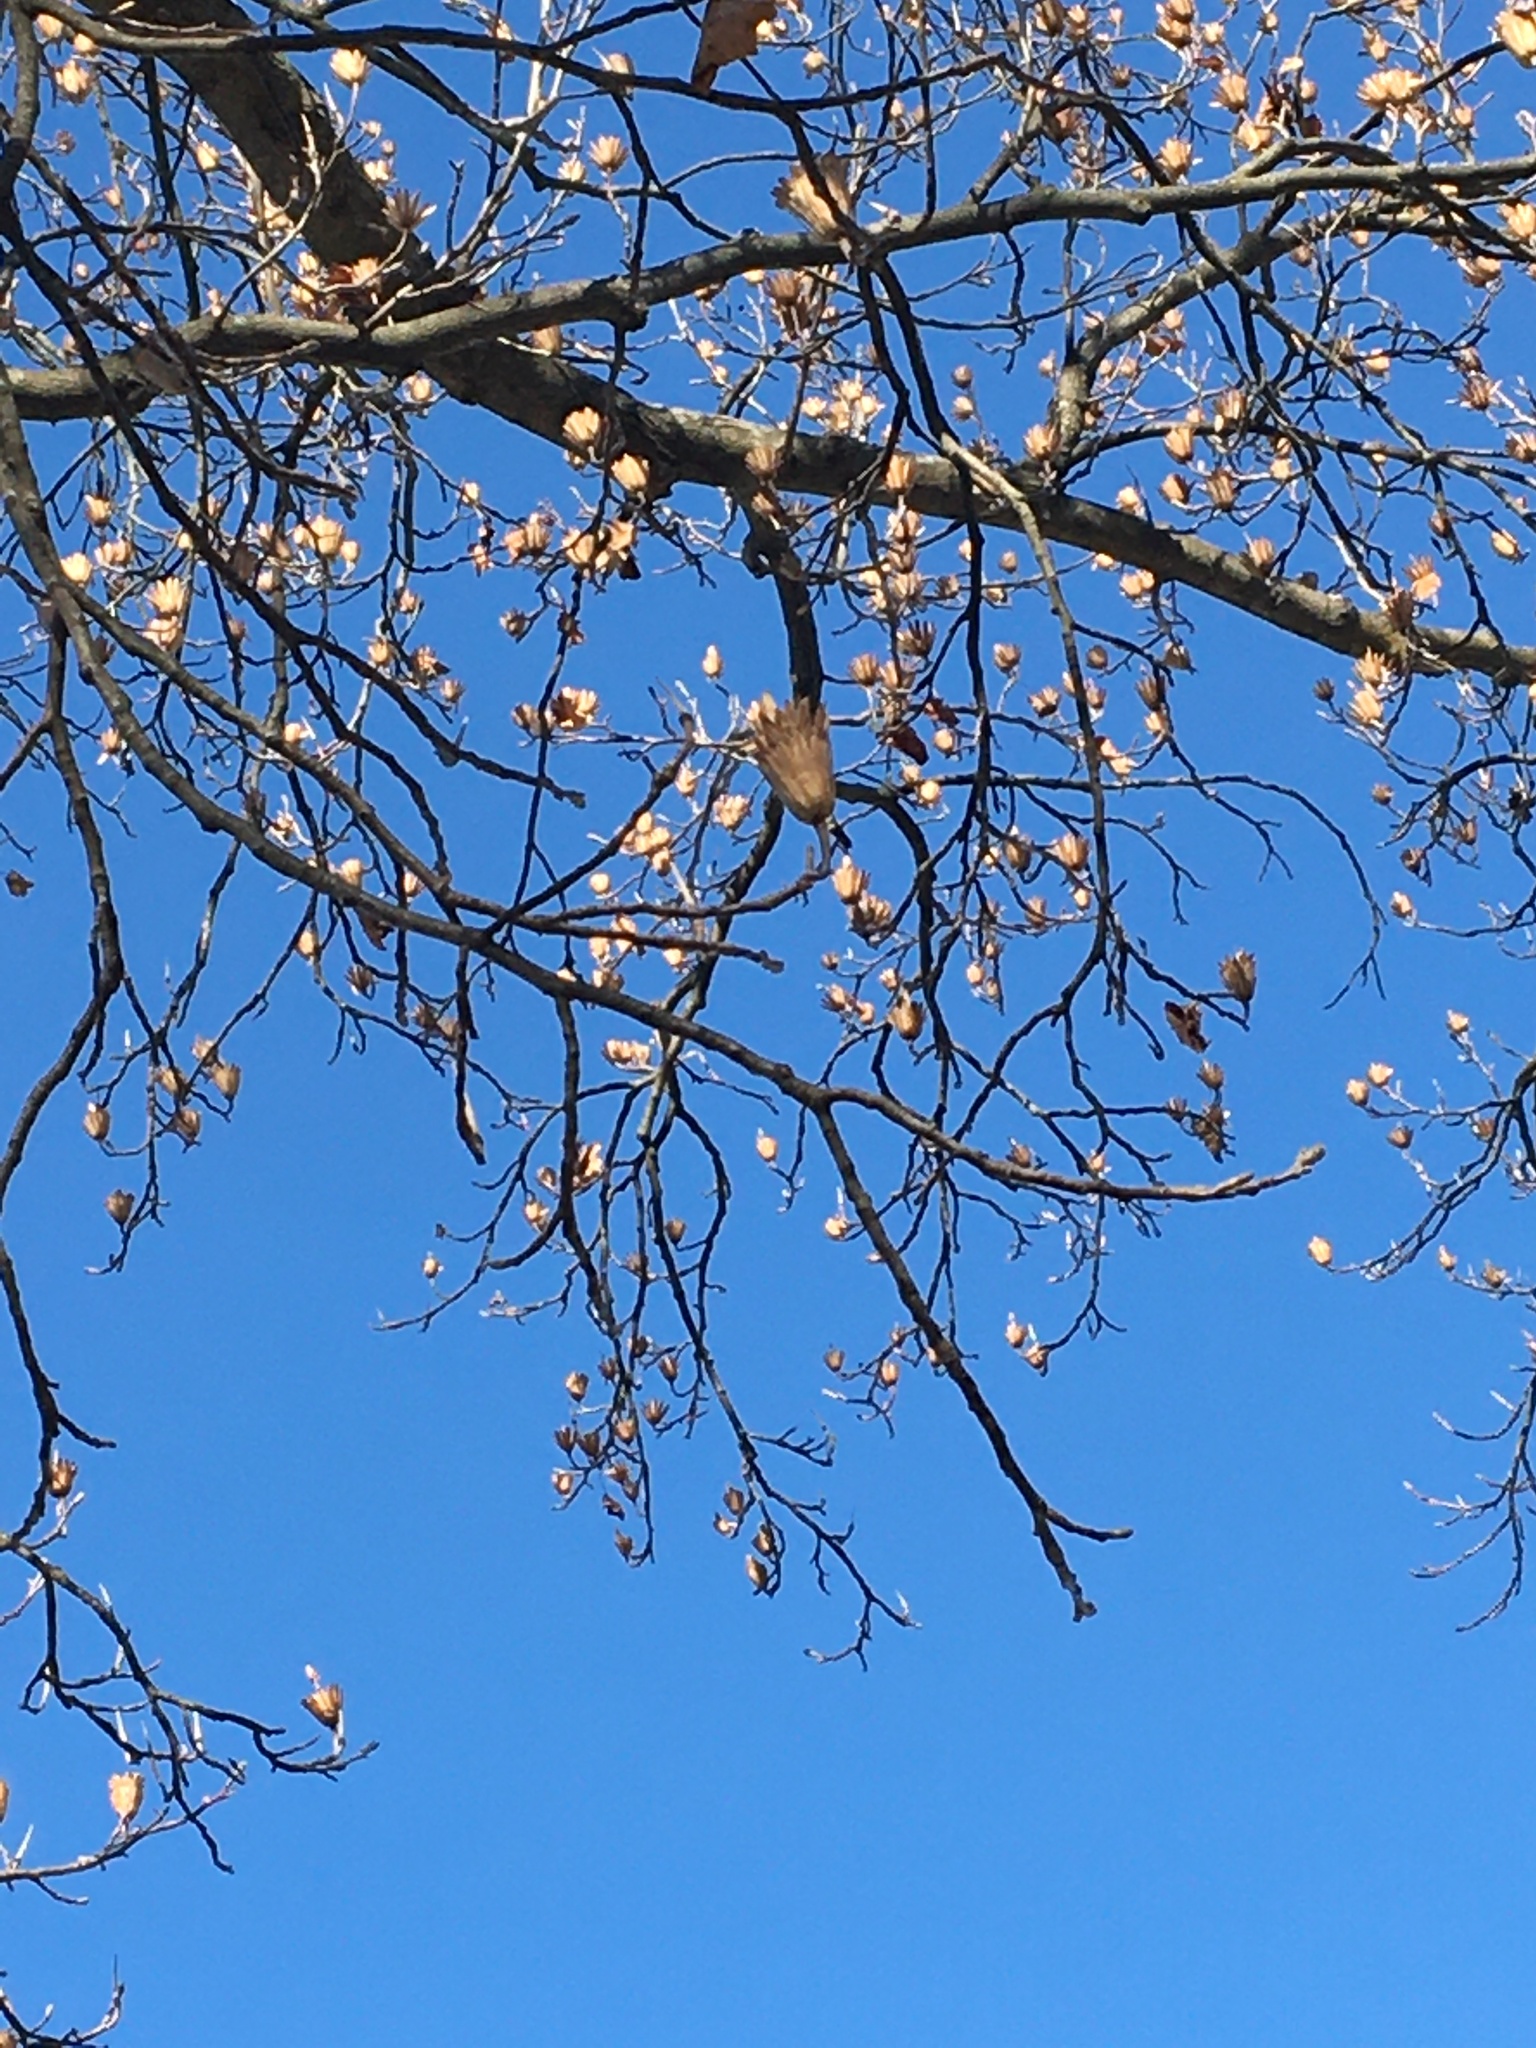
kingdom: Plantae
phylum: Tracheophyta
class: Magnoliopsida
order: Magnoliales
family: Magnoliaceae
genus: Liriodendron
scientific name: Liriodendron tulipifera
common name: Tulip tree
